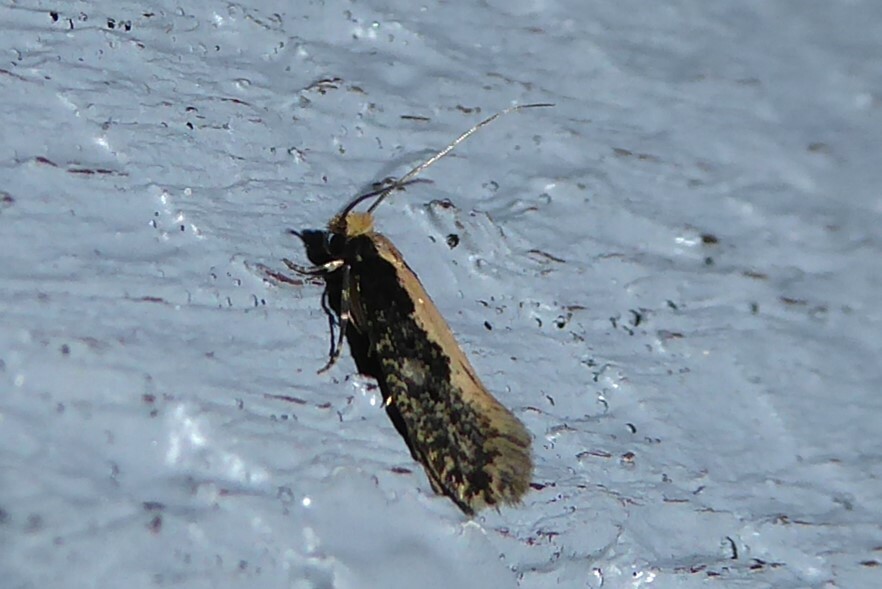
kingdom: Animalia
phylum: Arthropoda
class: Insecta
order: Lepidoptera
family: Tineidae
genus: Monopis
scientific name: Monopis crocicapitella
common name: Moth
